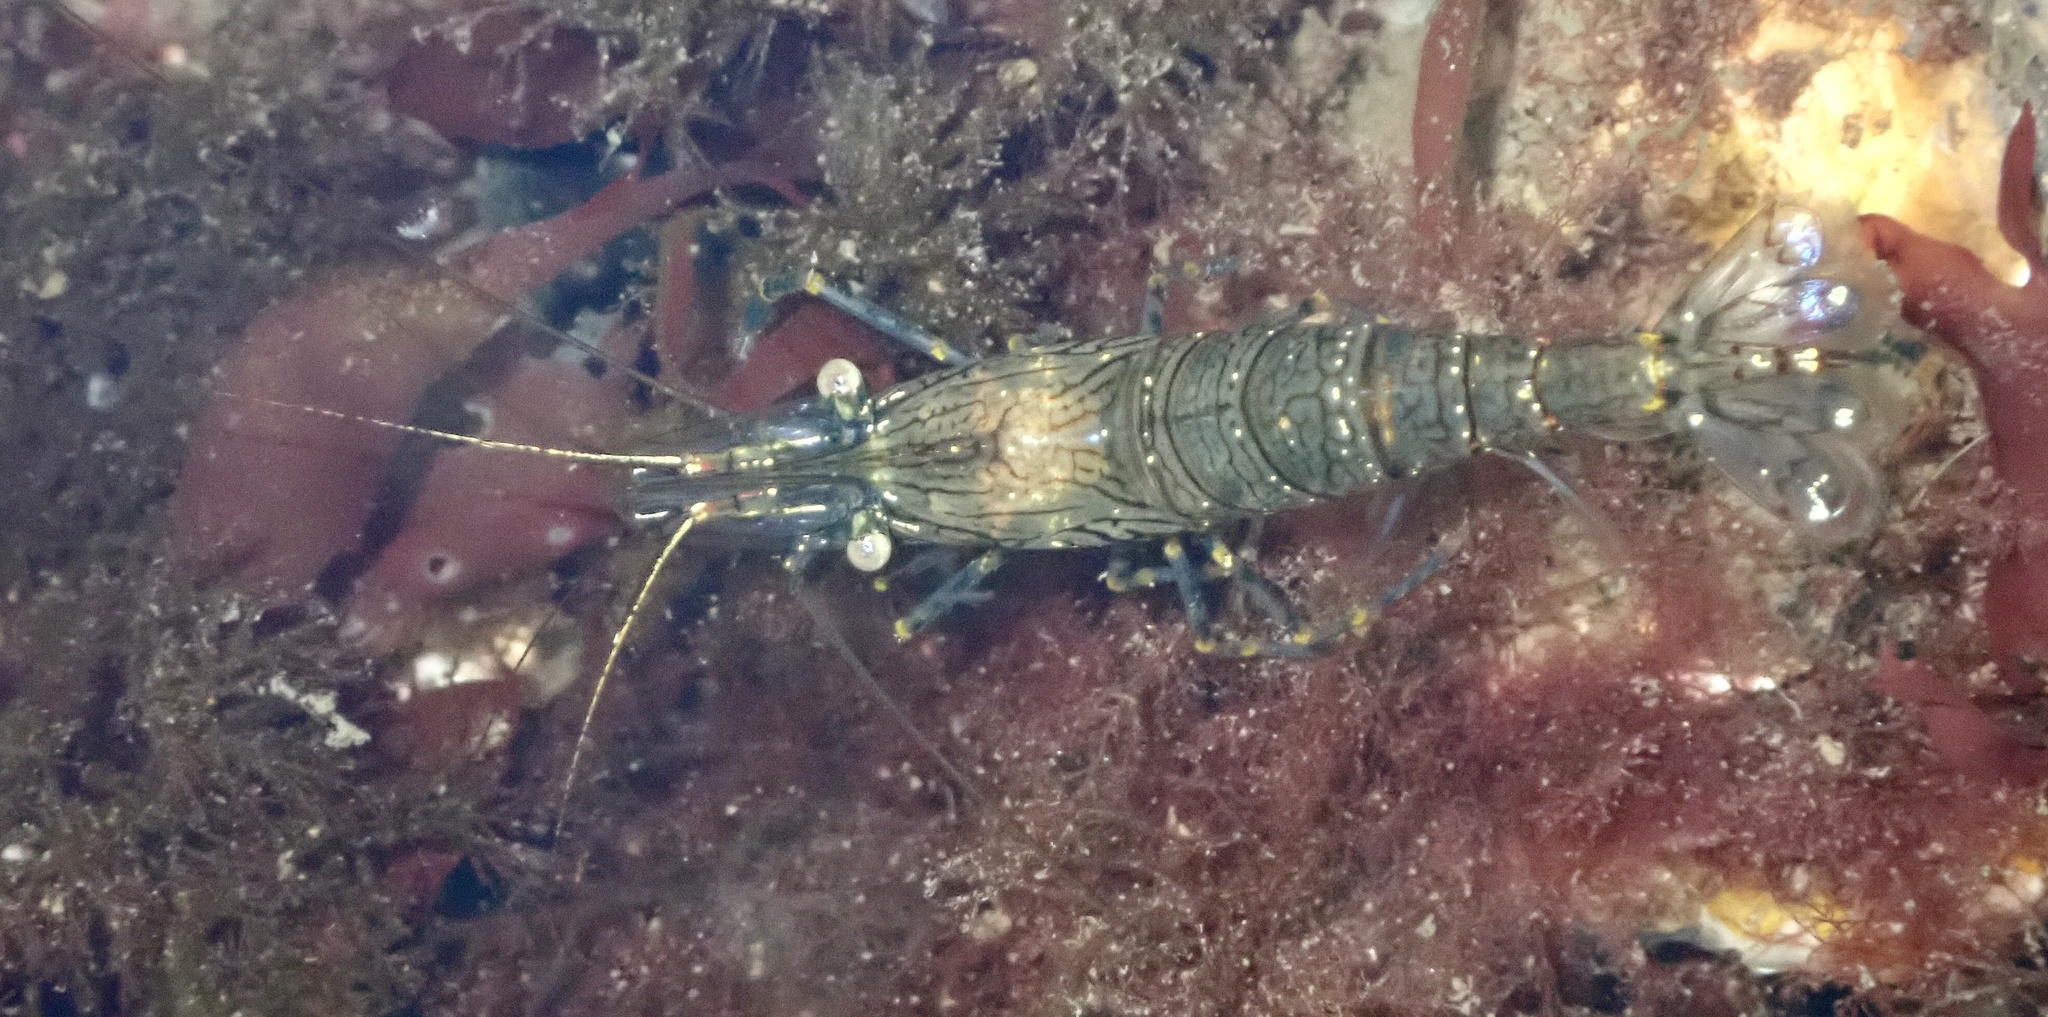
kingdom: Animalia
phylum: Arthropoda
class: Malacostraca
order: Decapoda
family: Palaemonidae
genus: Palaemon
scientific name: Palaemon elegans
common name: Grass prawm
